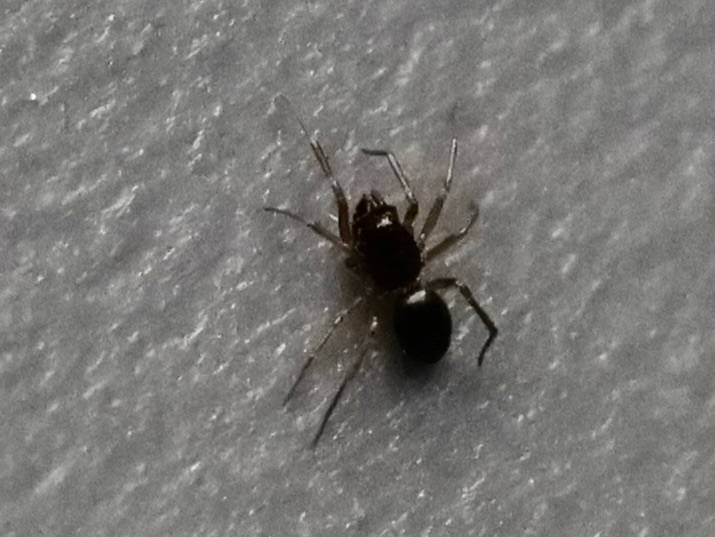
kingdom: Animalia
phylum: Arthropoda
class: Arachnida
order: Araneae
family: Linyphiidae
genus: Erigone
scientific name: Erigone
